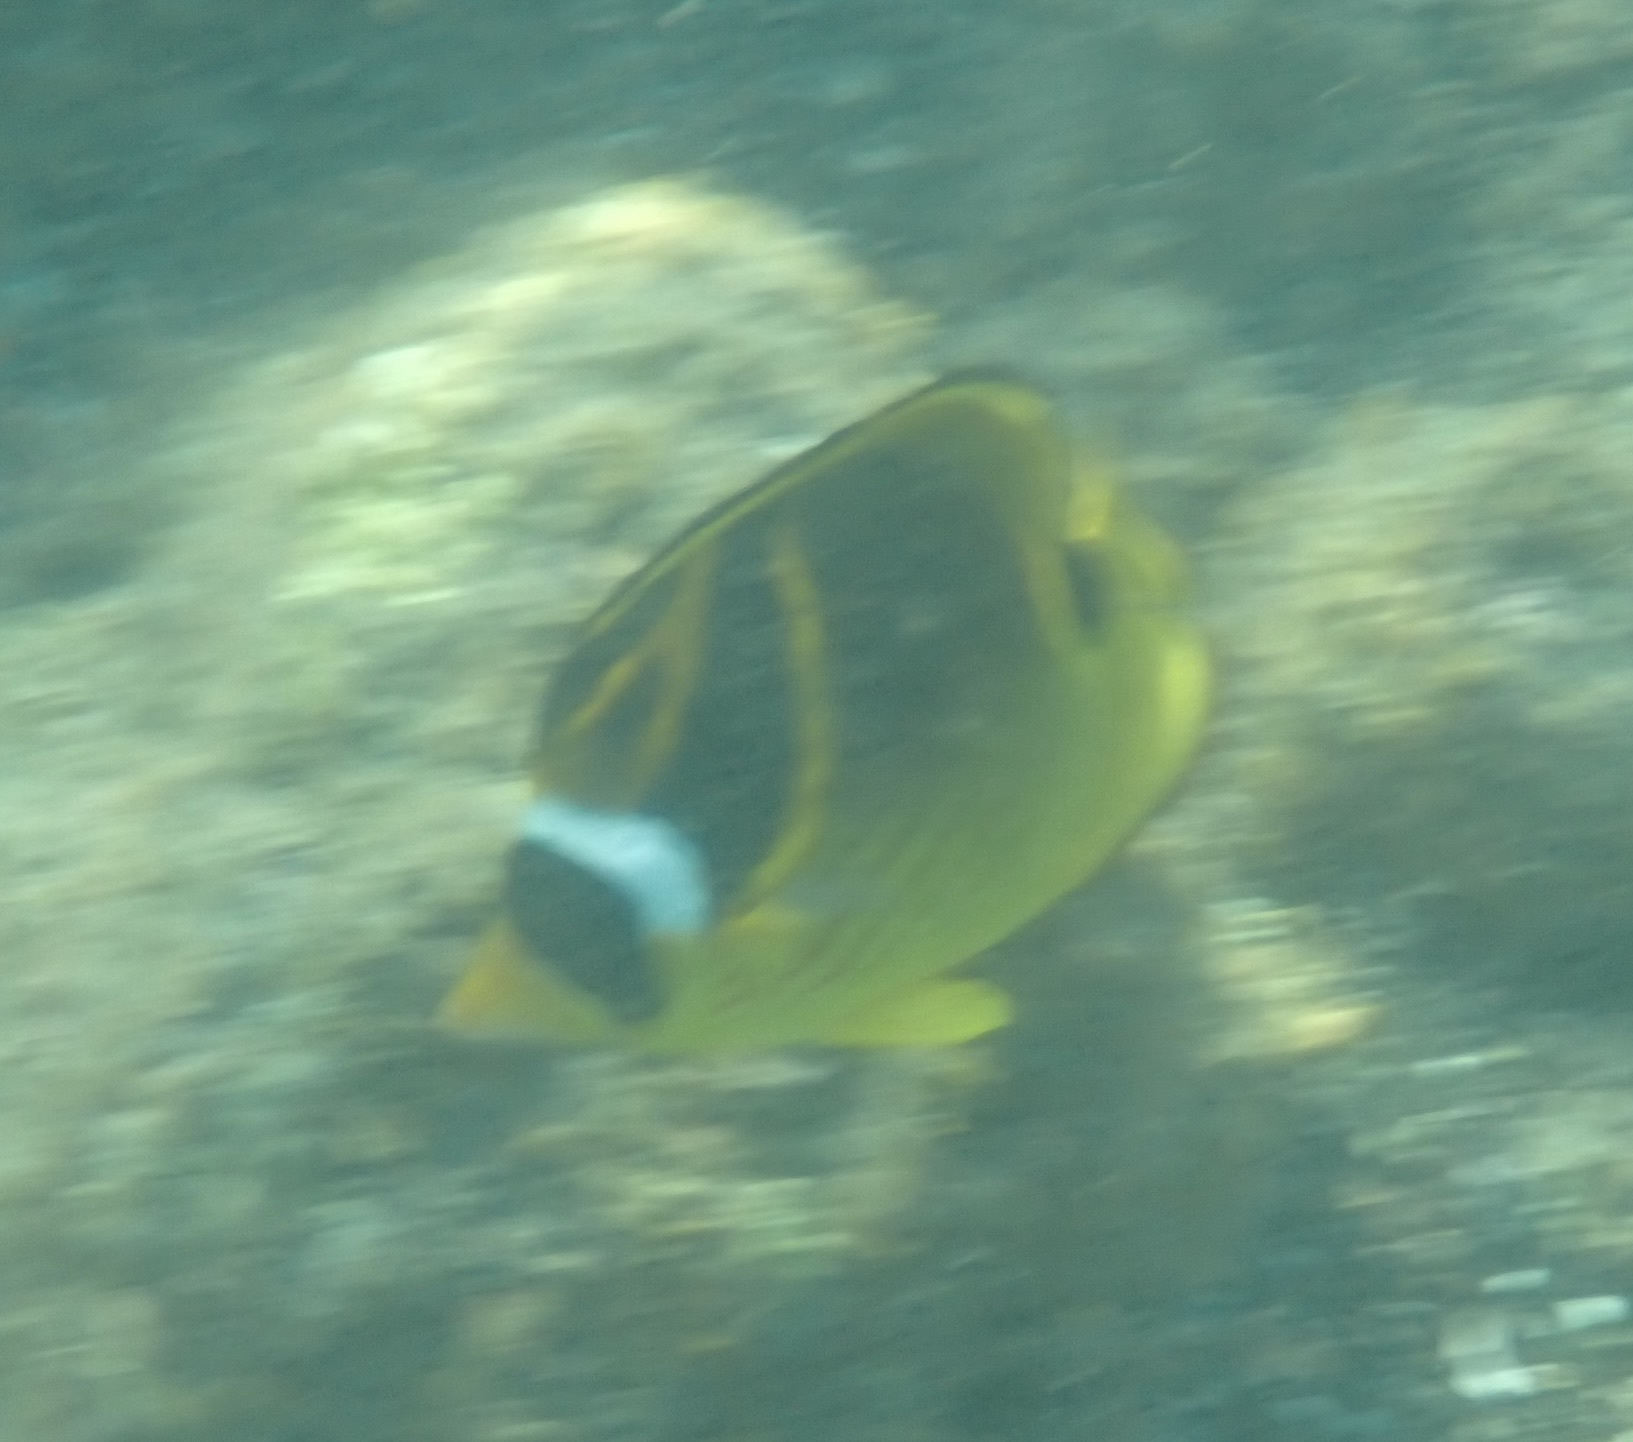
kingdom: Animalia
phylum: Chordata
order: Perciformes
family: Chaetodontidae
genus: Chaetodon
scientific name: Chaetodon lunula
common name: Raccoon butterflyfish
